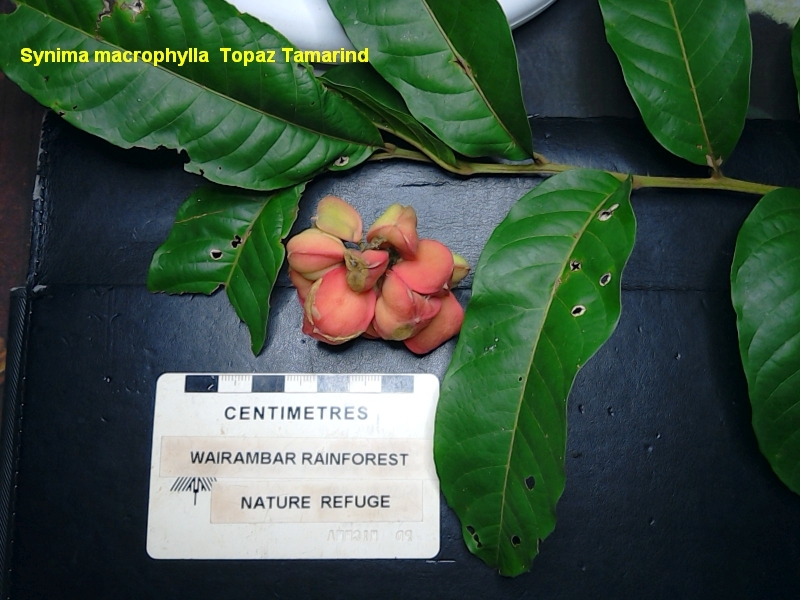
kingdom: Plantae
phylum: Tracheophyta
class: Magnoliopsida
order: Sapindales
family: Sapindaceae
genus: Synima
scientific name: Synima macrophylla
